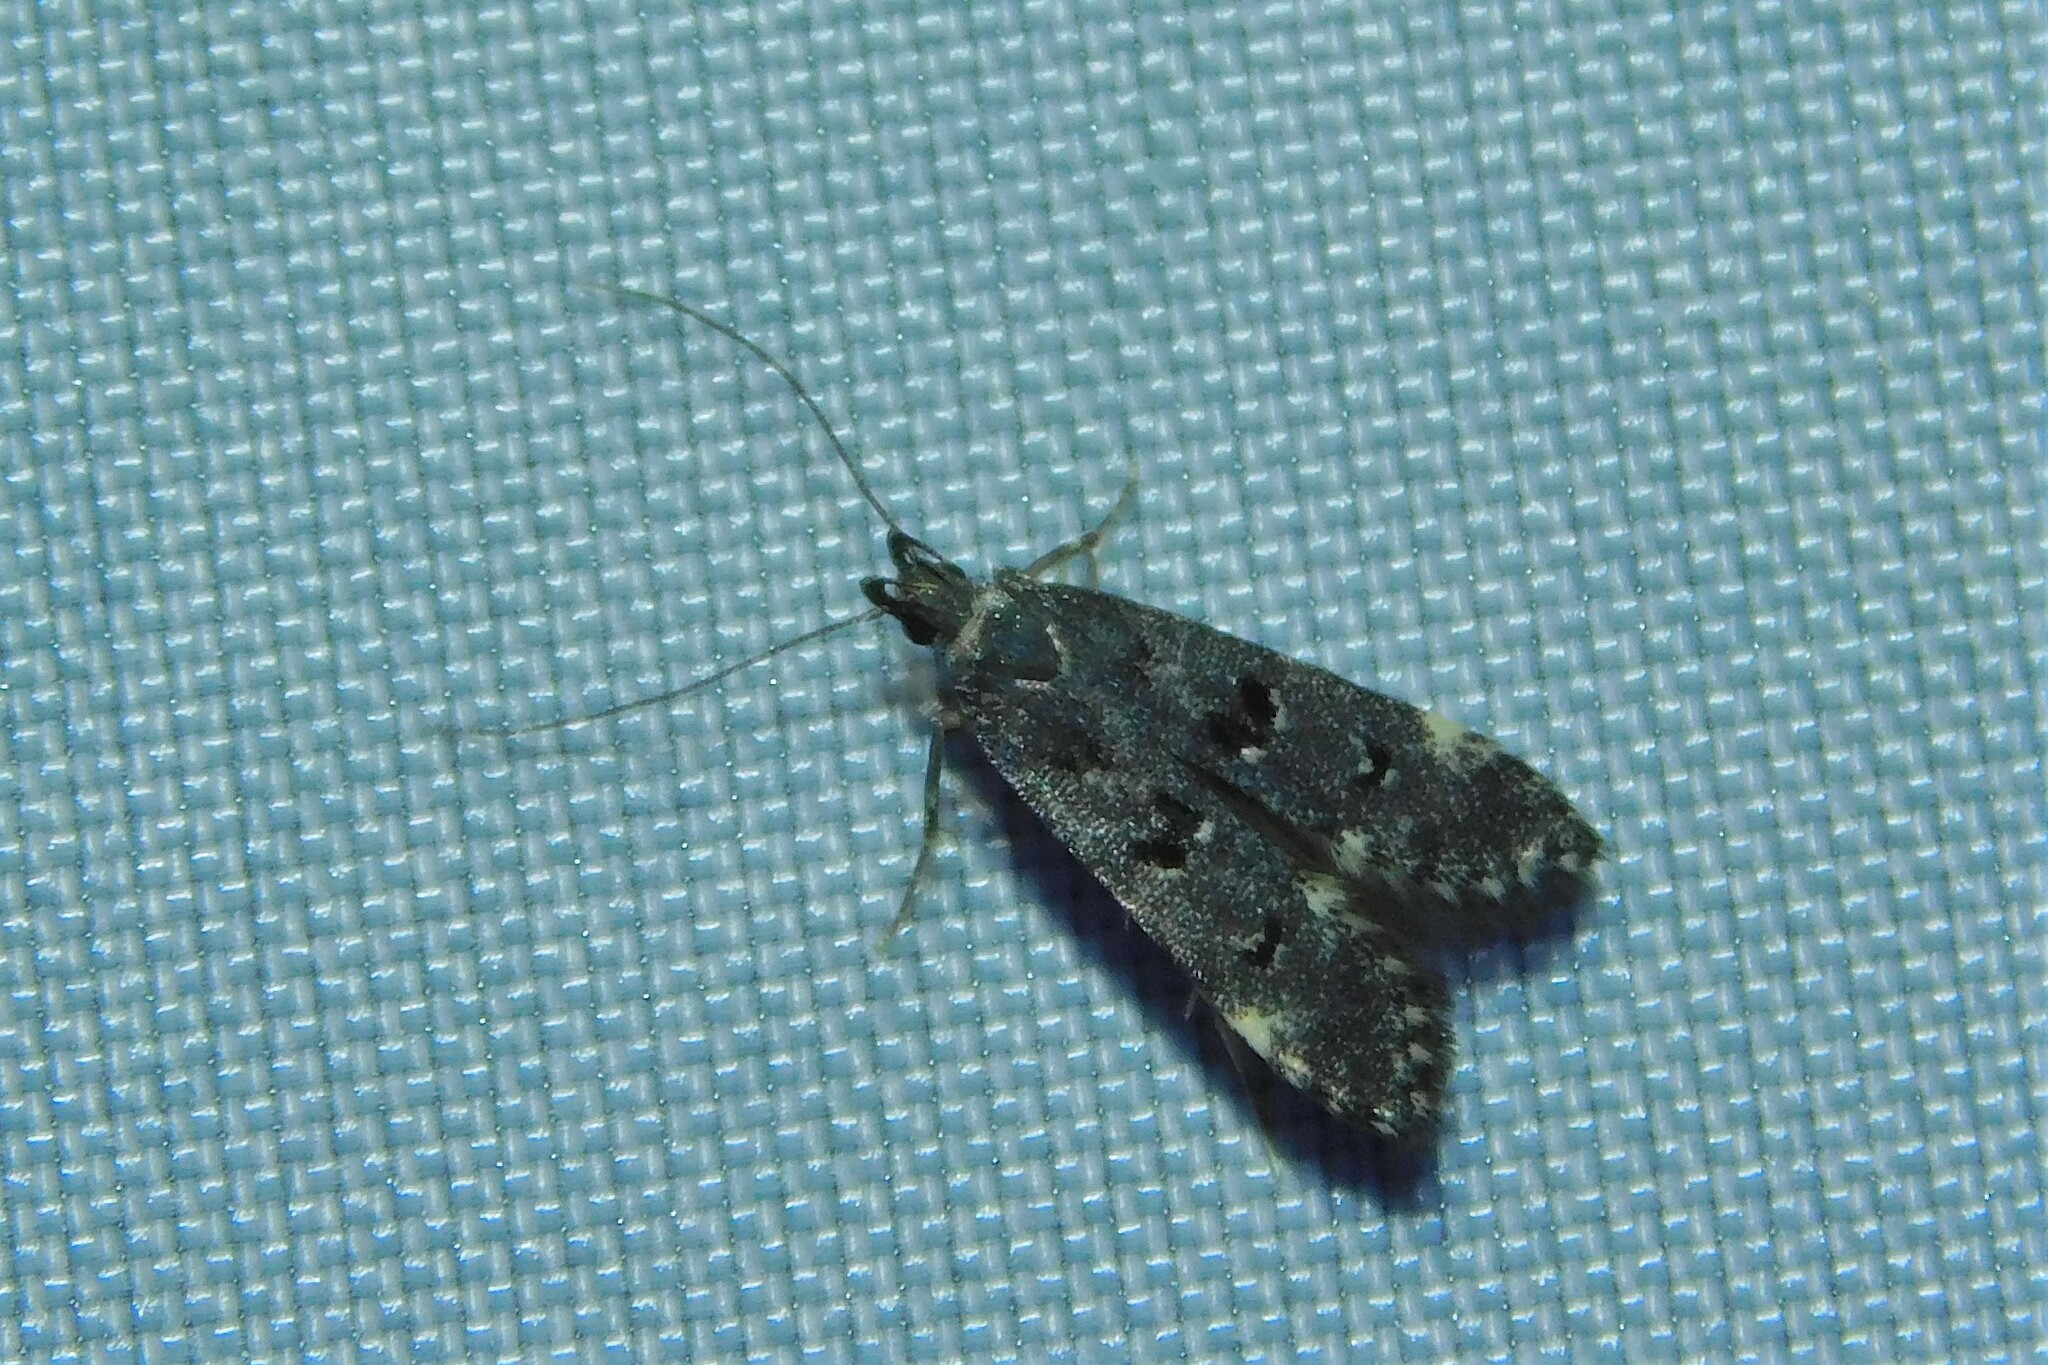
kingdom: Animalia
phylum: Arthropoda
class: Insecta
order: Lepidoptera
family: Gelechiidae
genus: Acanthophila
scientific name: Acanthophila alacella
